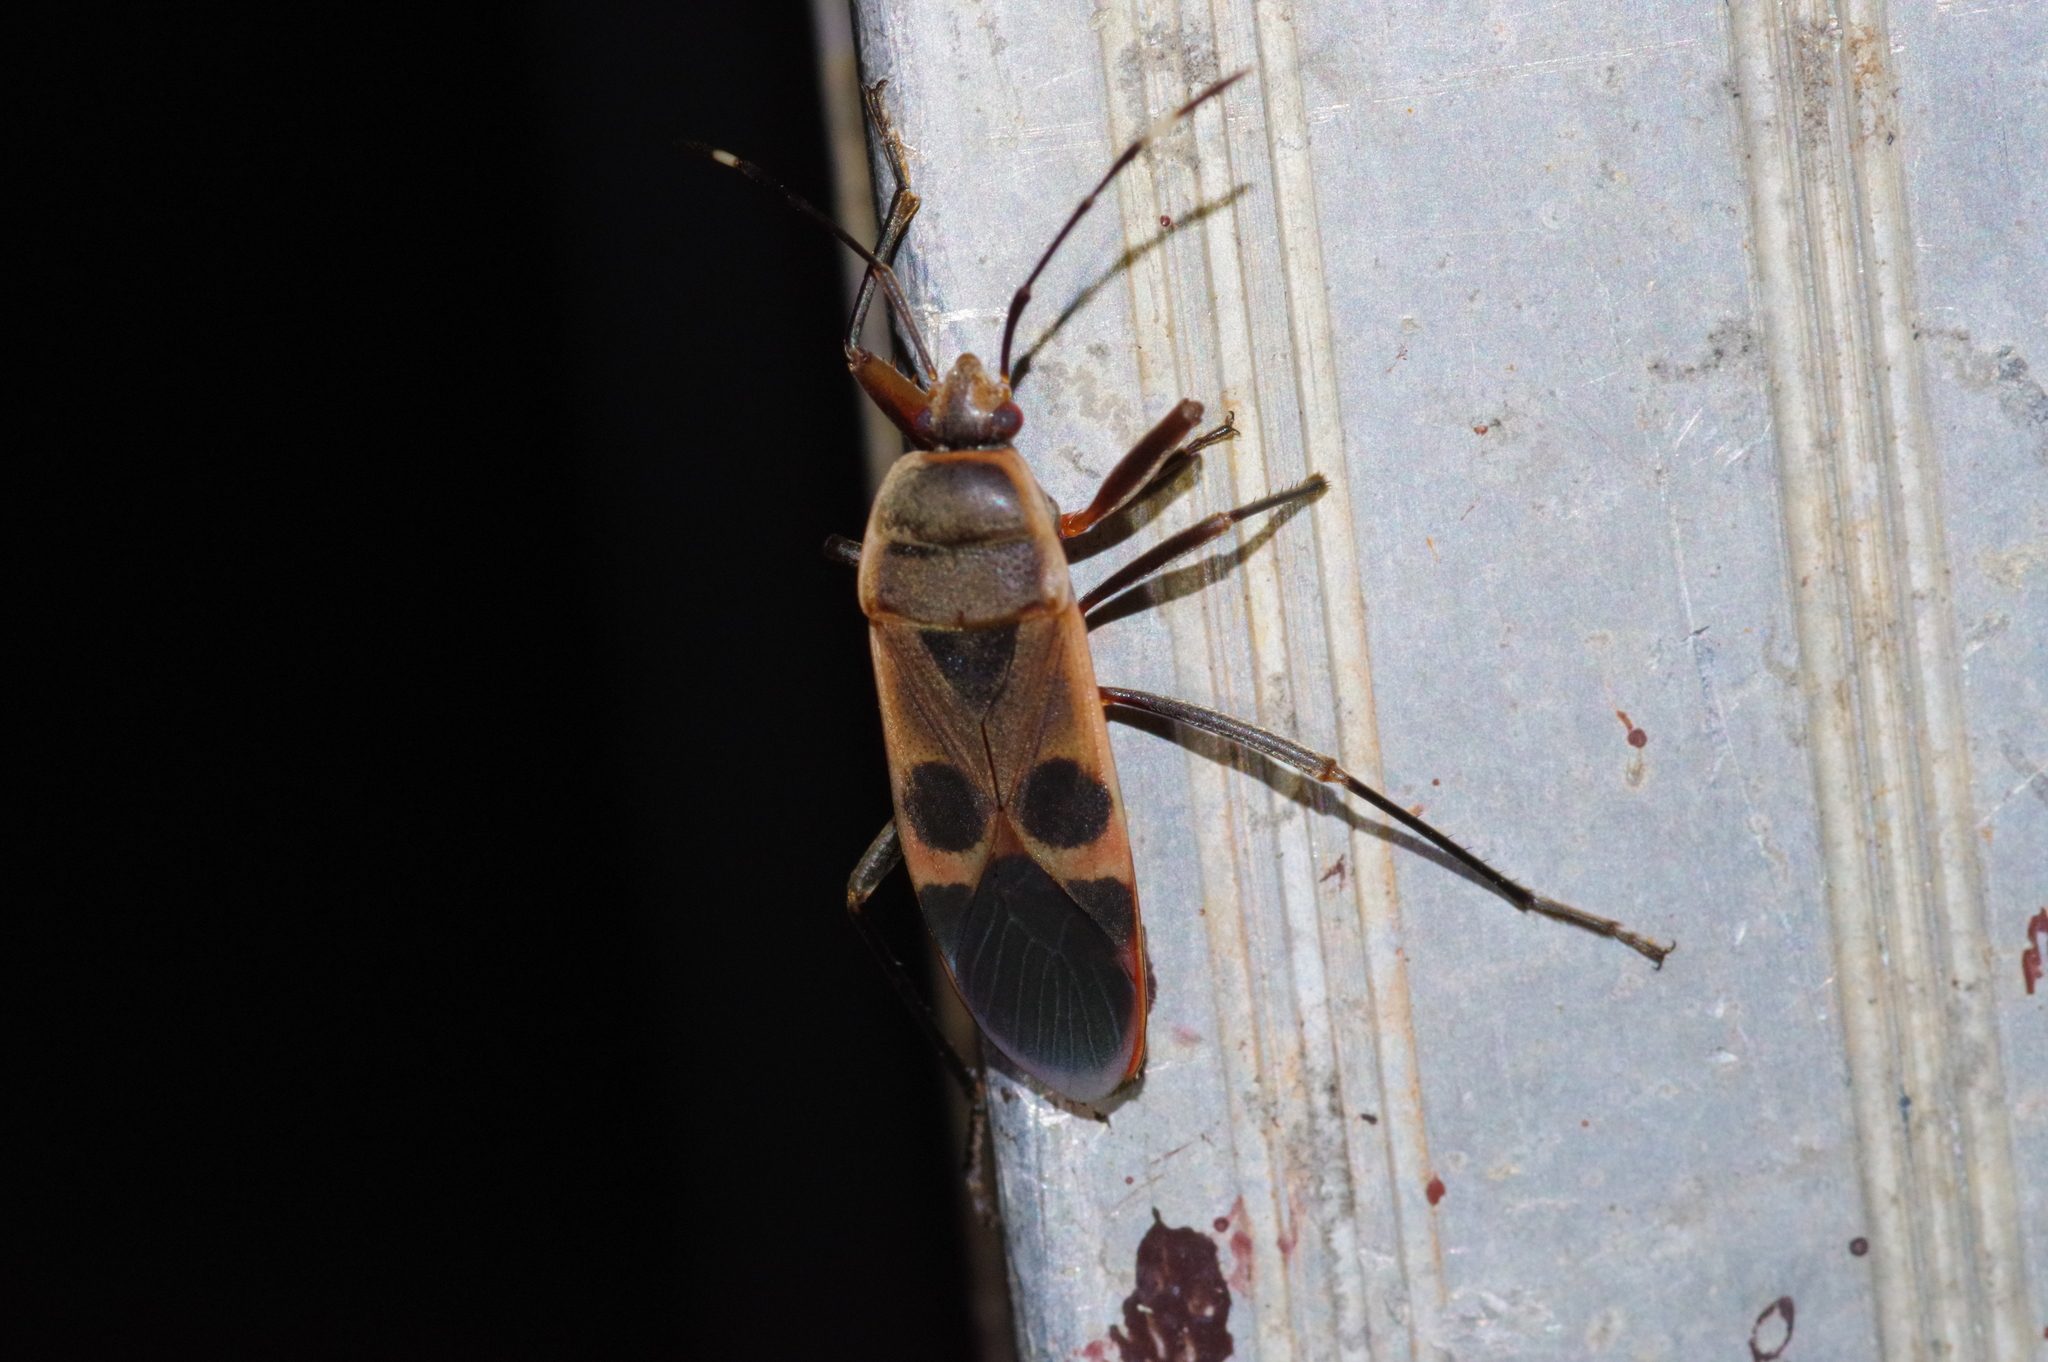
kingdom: Animalia
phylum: Arthropoda
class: Insecta
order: Hemiptera
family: Largidae
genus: Physopelta
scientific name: Physopelta gutta
